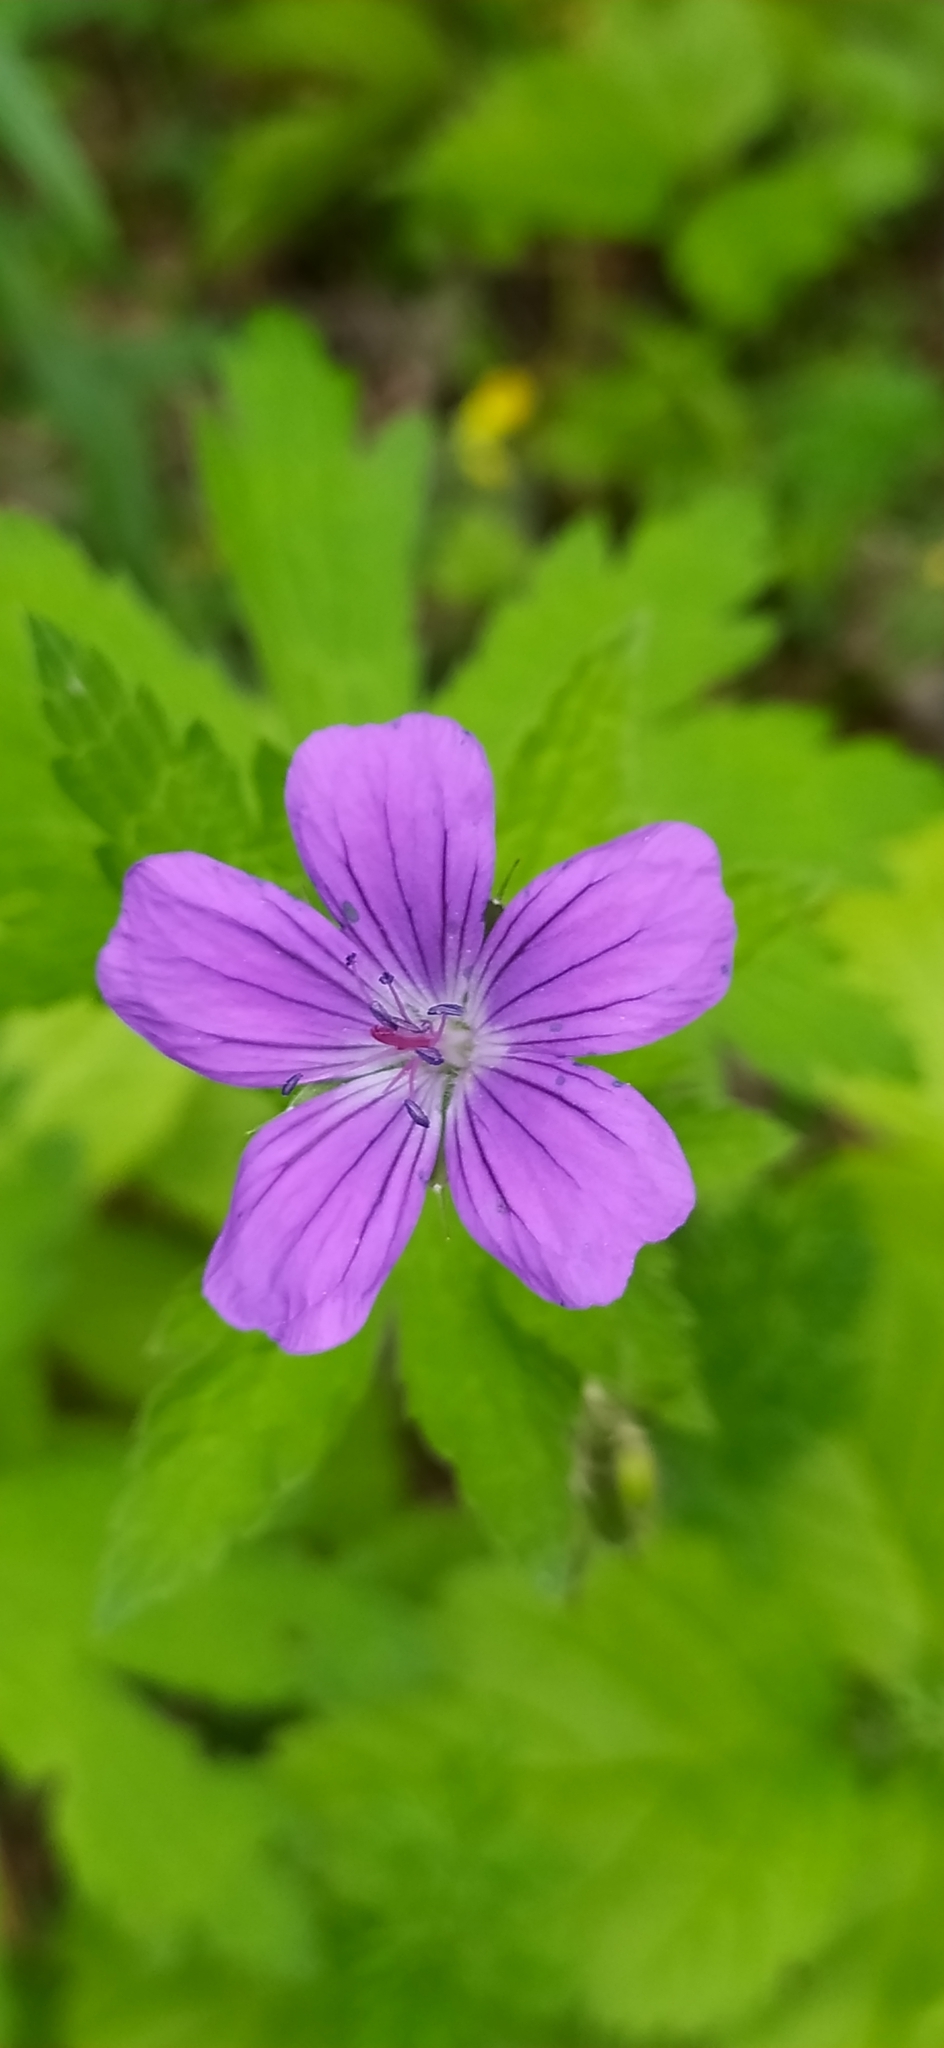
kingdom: Plantae
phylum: Tracheophyta
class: Magnoliopsida
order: Geraniales
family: Geraniaceae
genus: Geranium
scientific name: Geranium sylvaticum
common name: Wood crane's-bill
